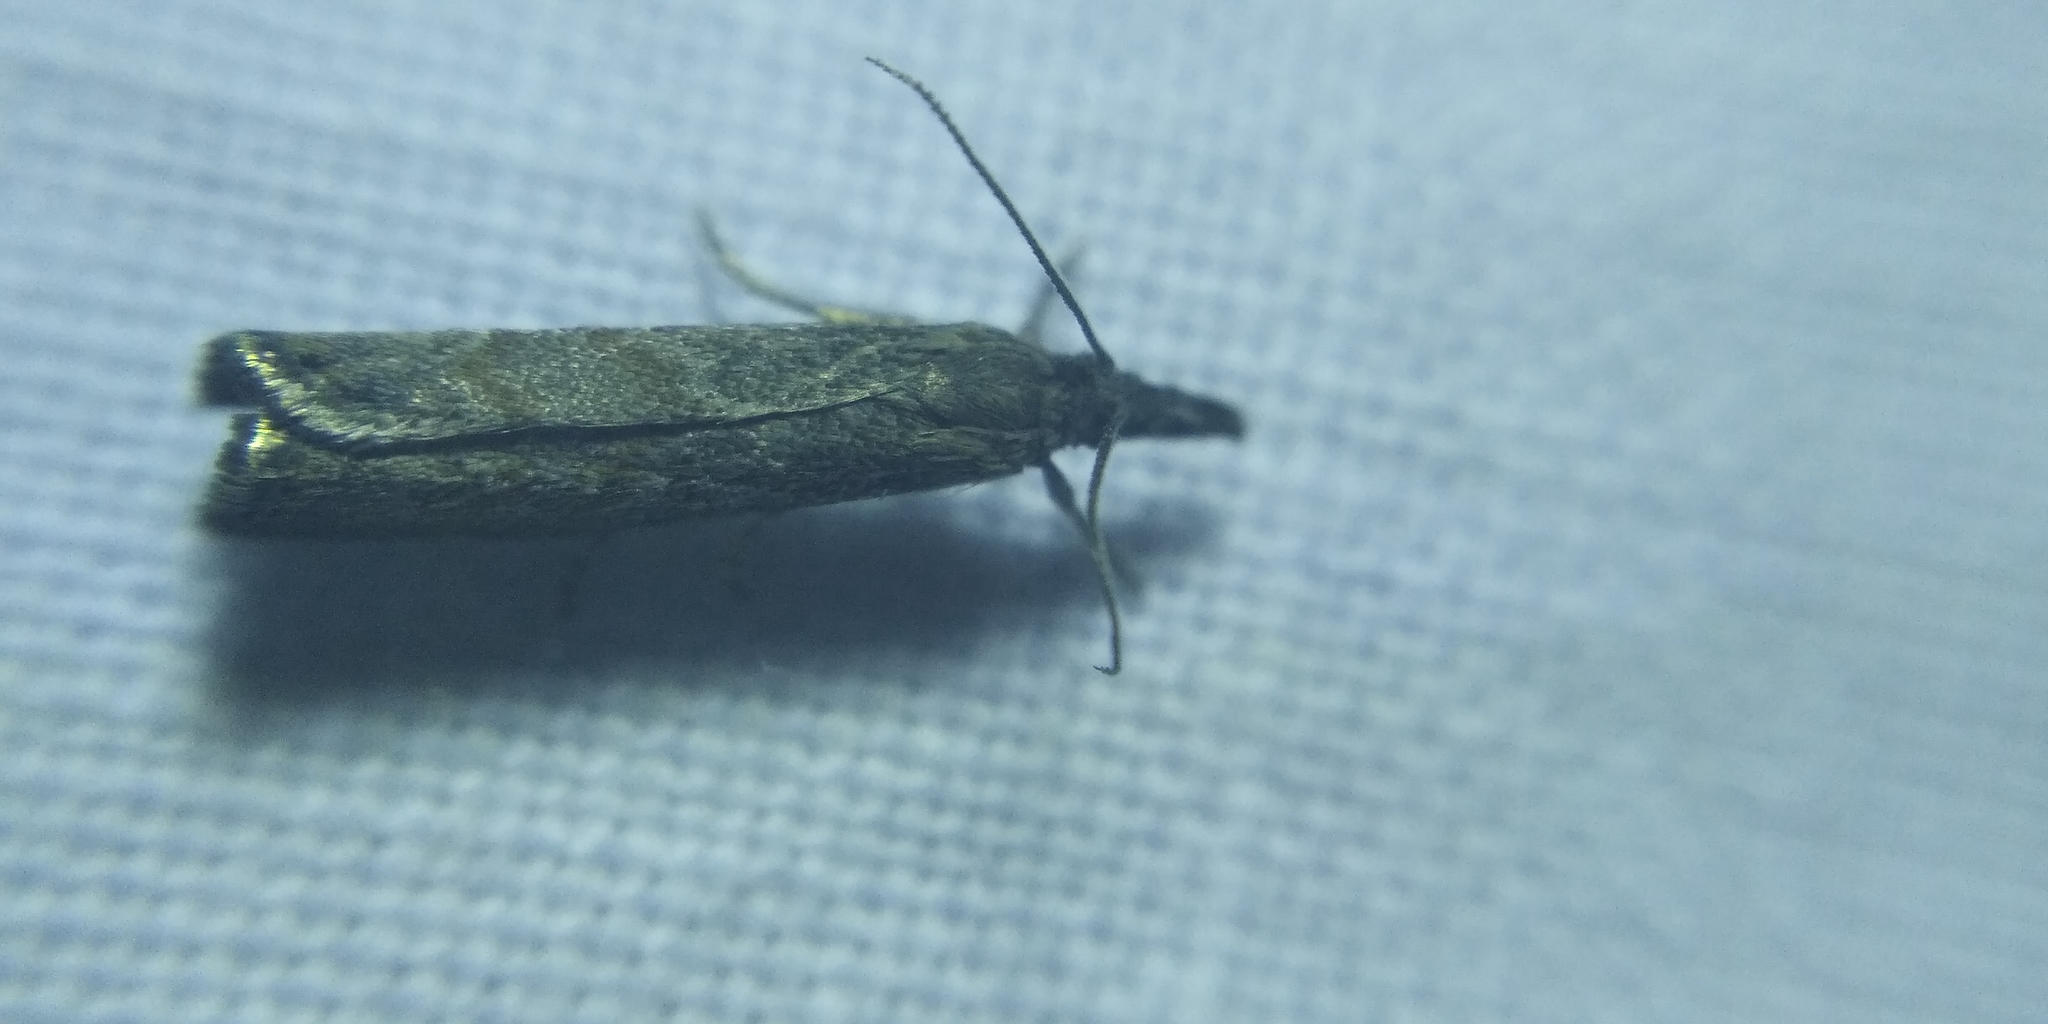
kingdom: Animalia
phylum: Arthropoda
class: Insecta
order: Lepidoptera
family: Crambidae
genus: Platytes
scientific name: Platytes cerusella
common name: Little grass-veneer
